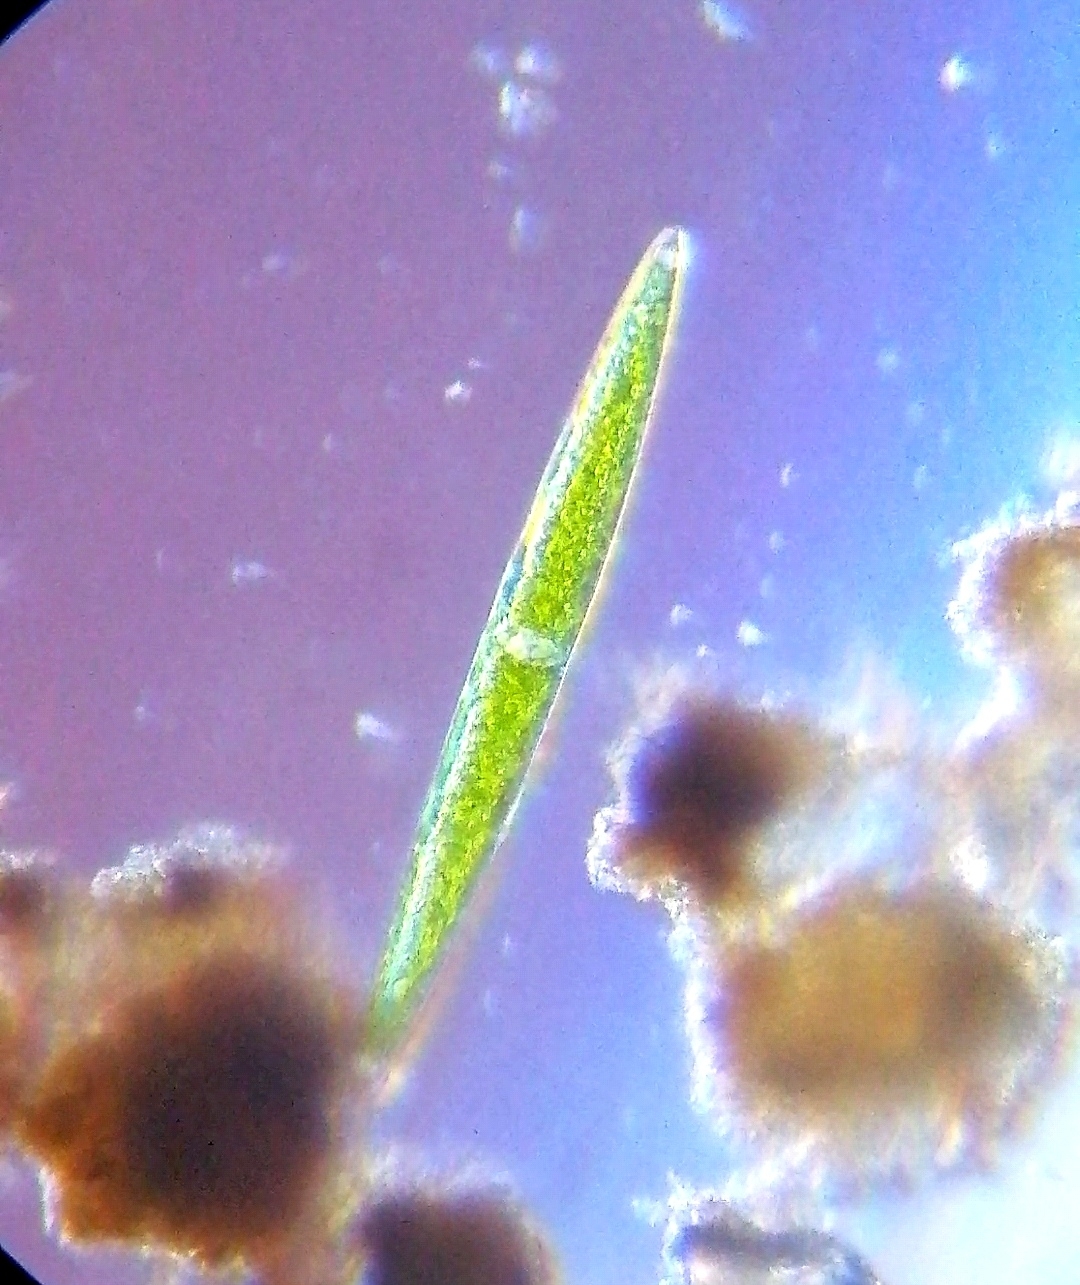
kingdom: Plantae
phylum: Charophyta
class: Zygnematophyceae
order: Zygnematales
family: Closteriaceae
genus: Closterium
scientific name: Closterium acerosum
